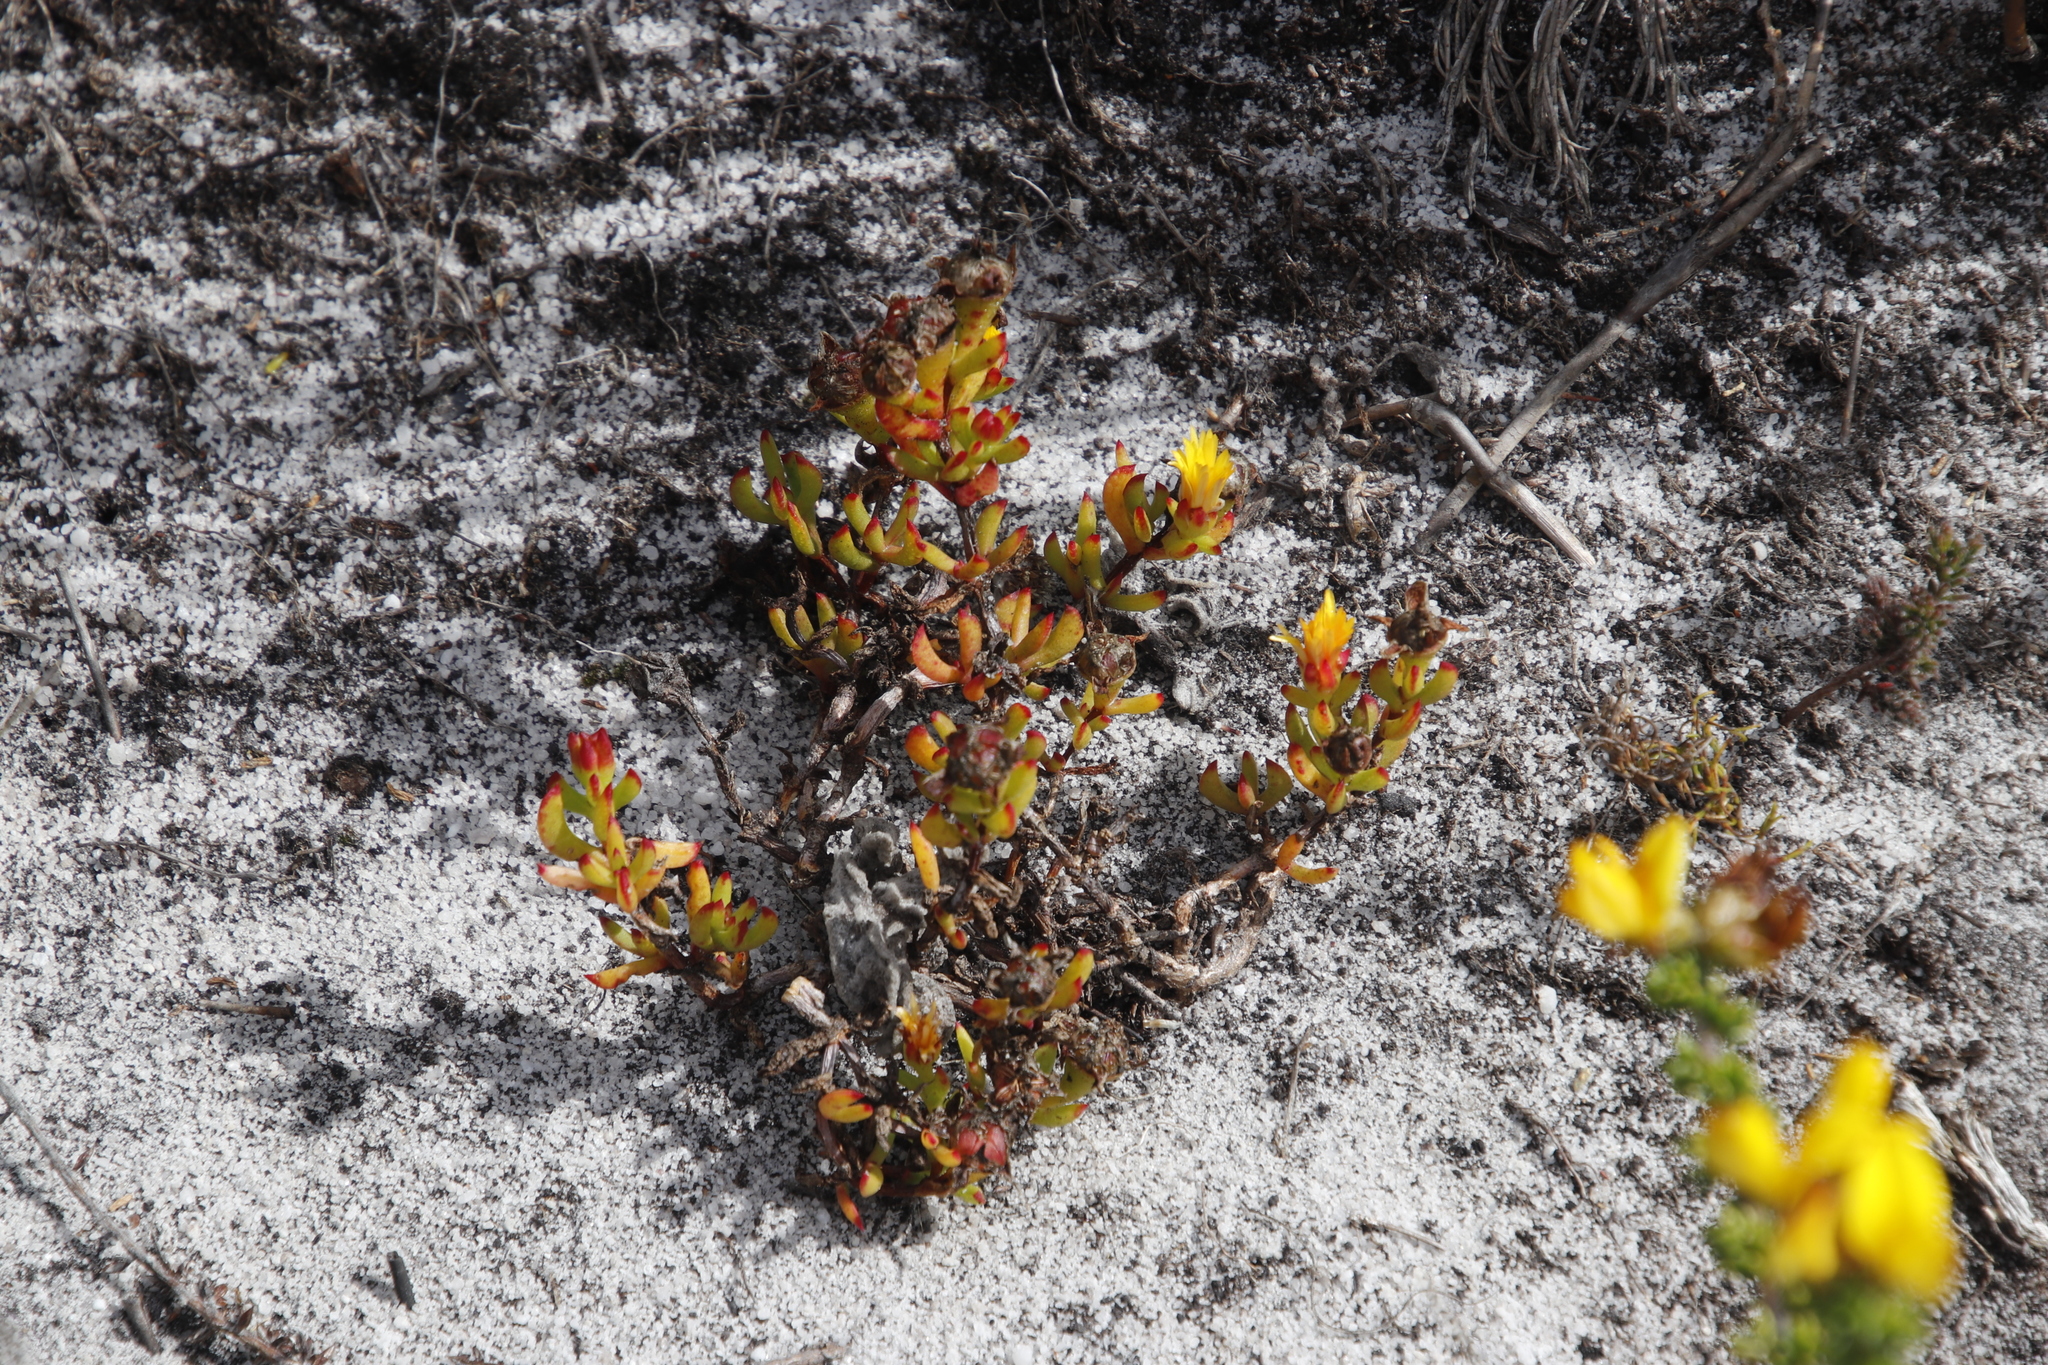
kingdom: Plantae
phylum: Tracheophyta
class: Magnoliopsida
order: Caryophyllales
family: Aizoaceae
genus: Lampranthus
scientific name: Lampranthus promontorii
